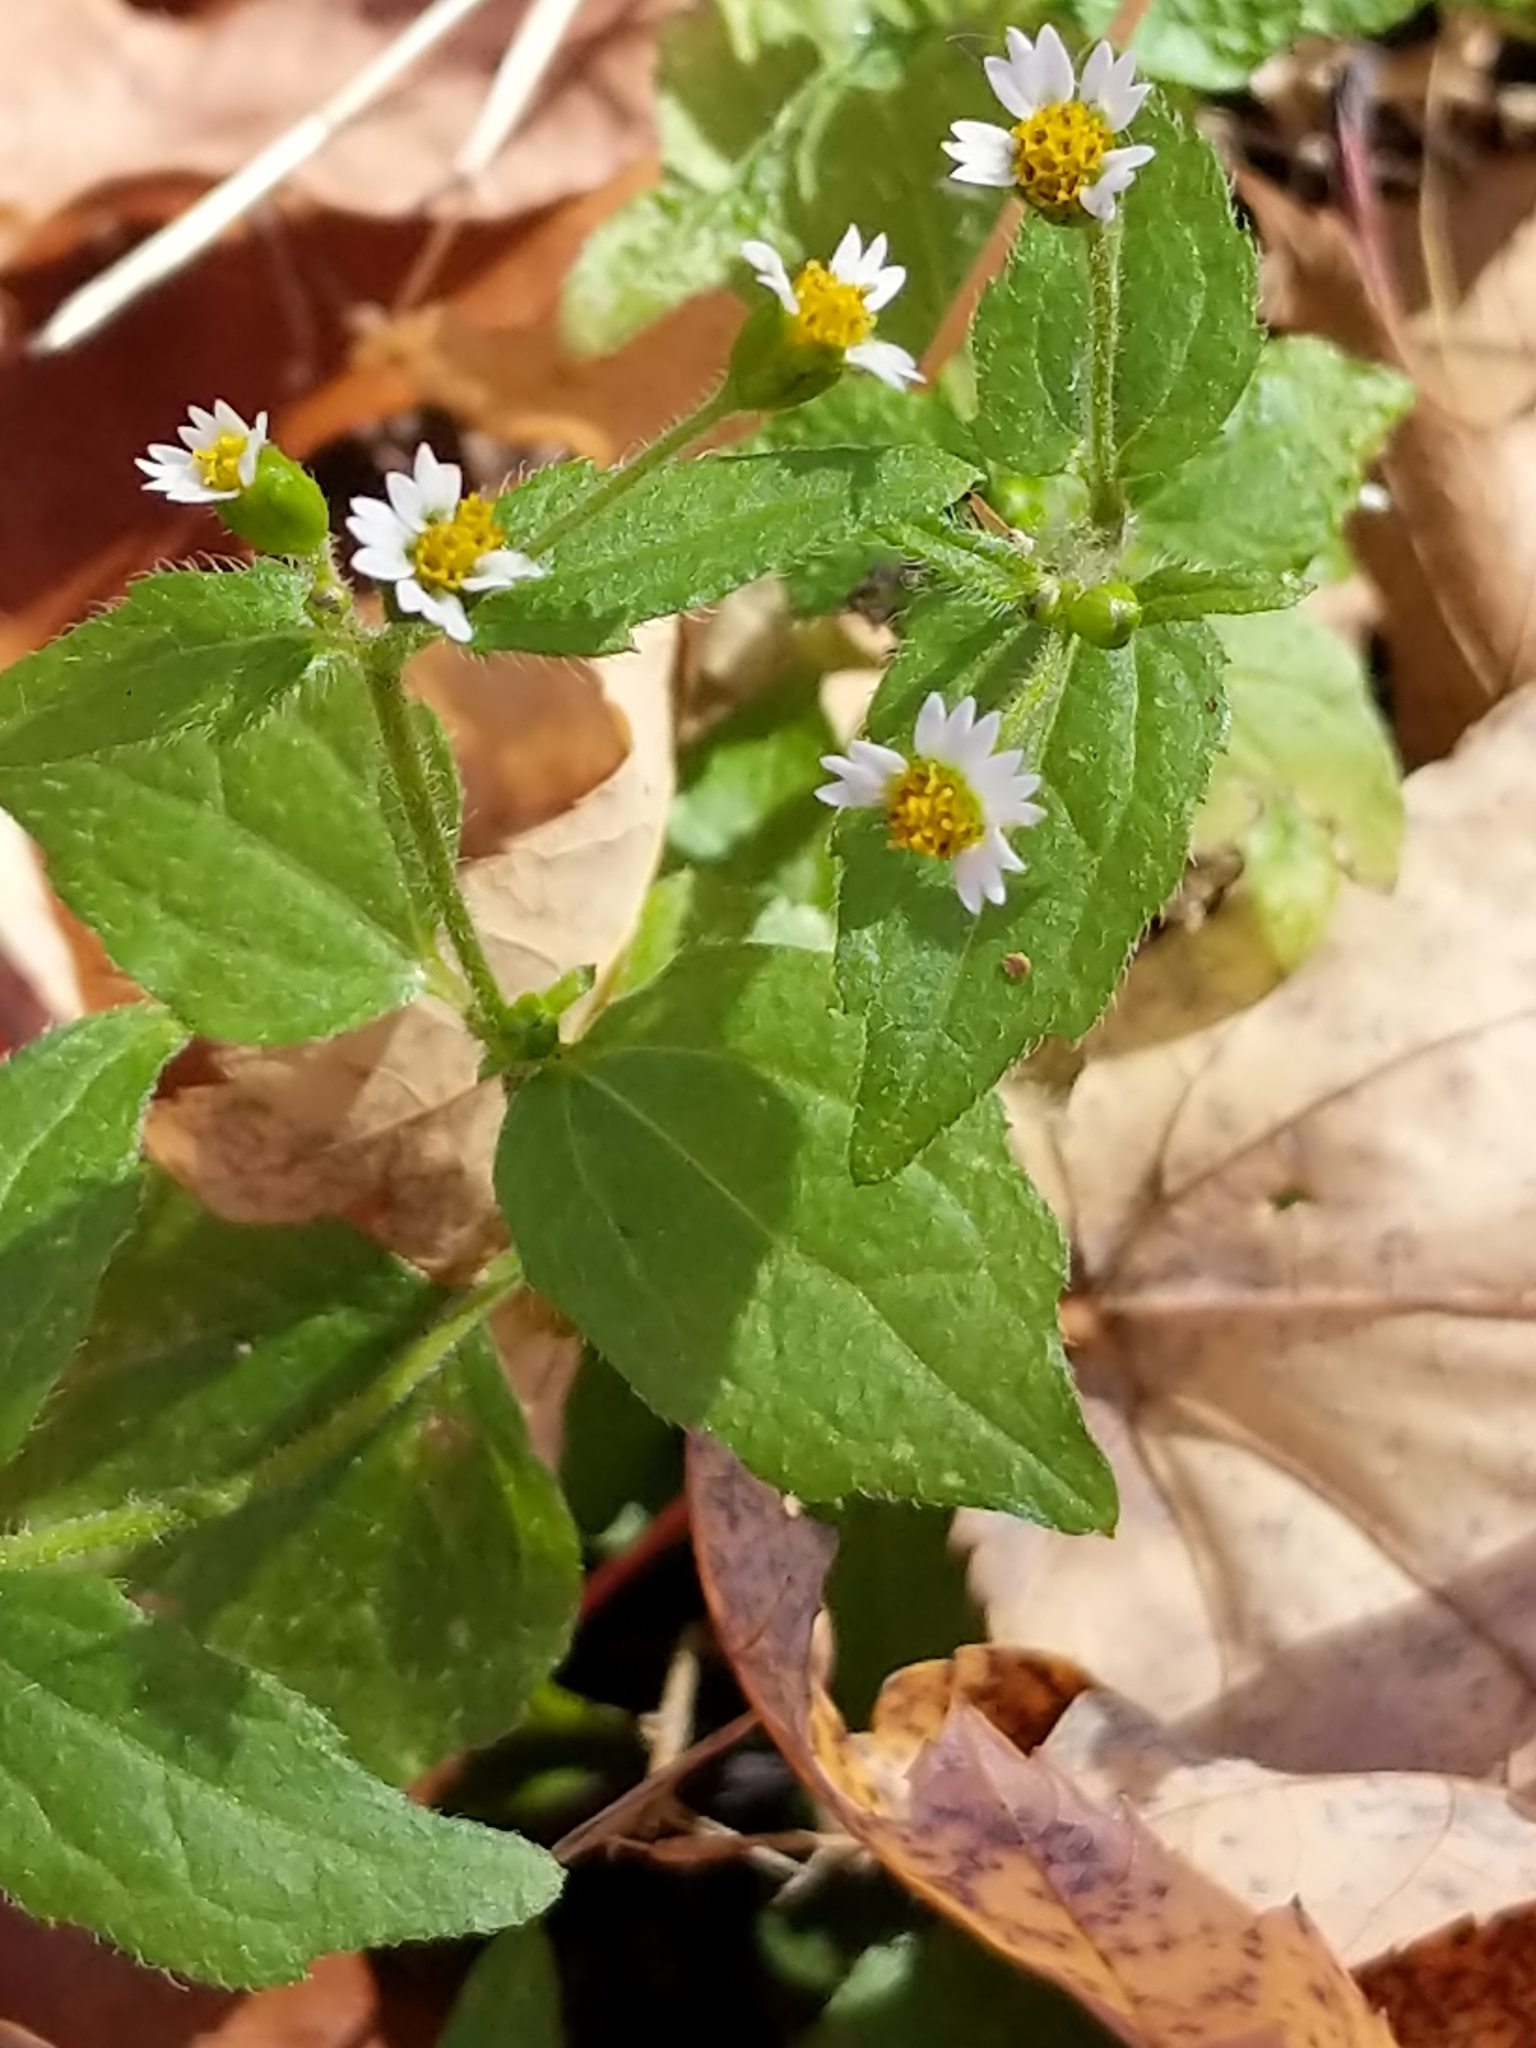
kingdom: Plantae
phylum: Tracheophyta
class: Magnoliopsida
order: Asterales
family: Asteraceae
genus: Galinsoga
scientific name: Galinsoga quadriradiata
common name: Shaggy soldier
